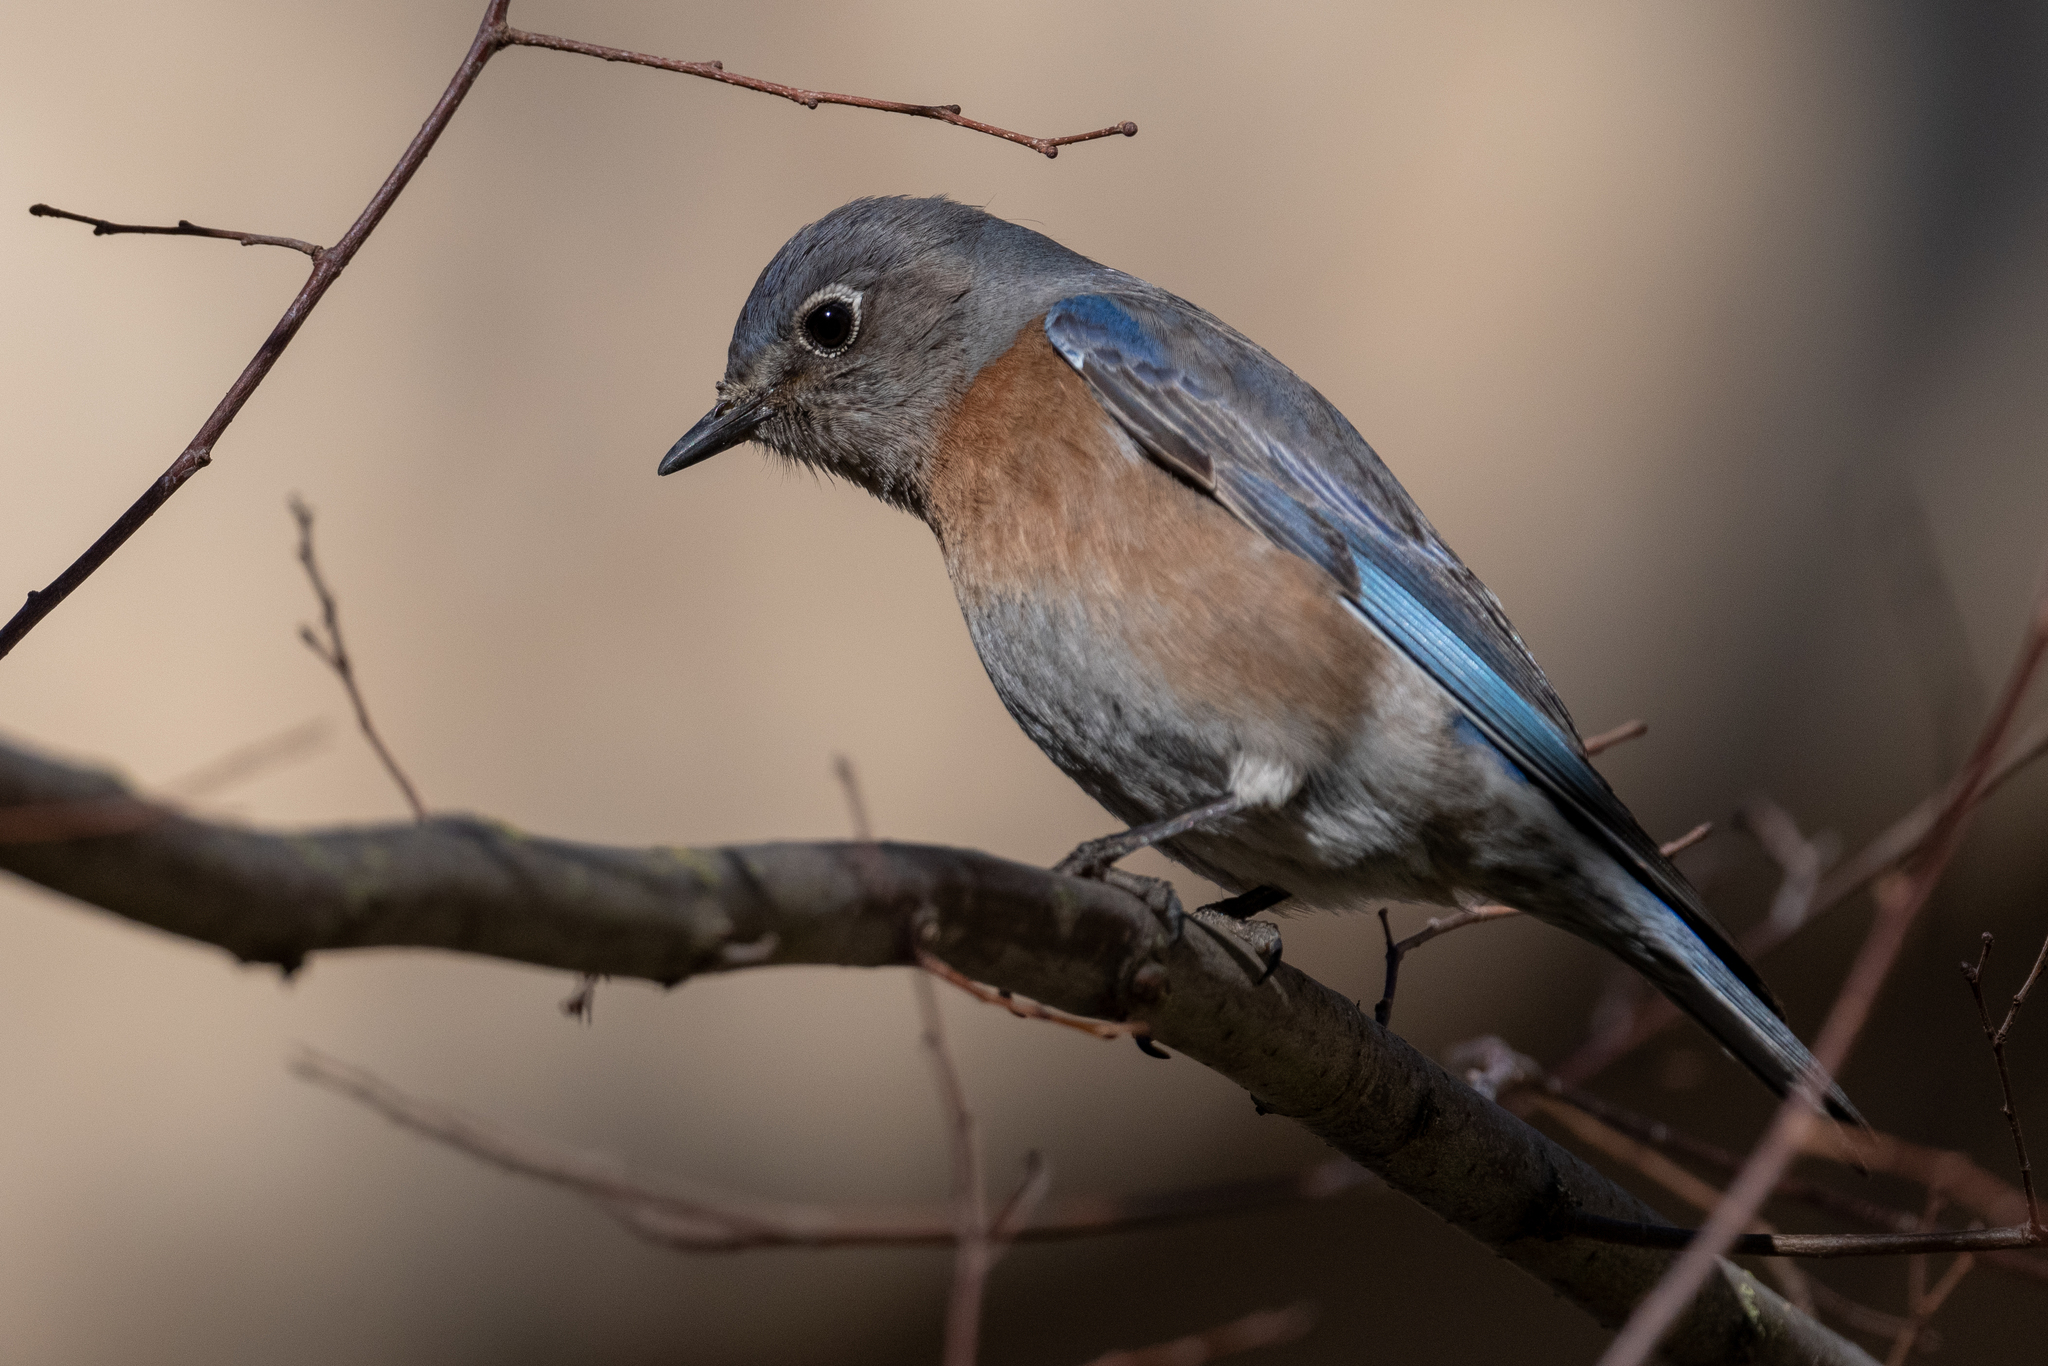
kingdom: Animalia
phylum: Chordata
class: Aves
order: Passeriformes
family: Turdidae
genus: Sialia
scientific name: Sialia mexicana
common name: Western bluebird
